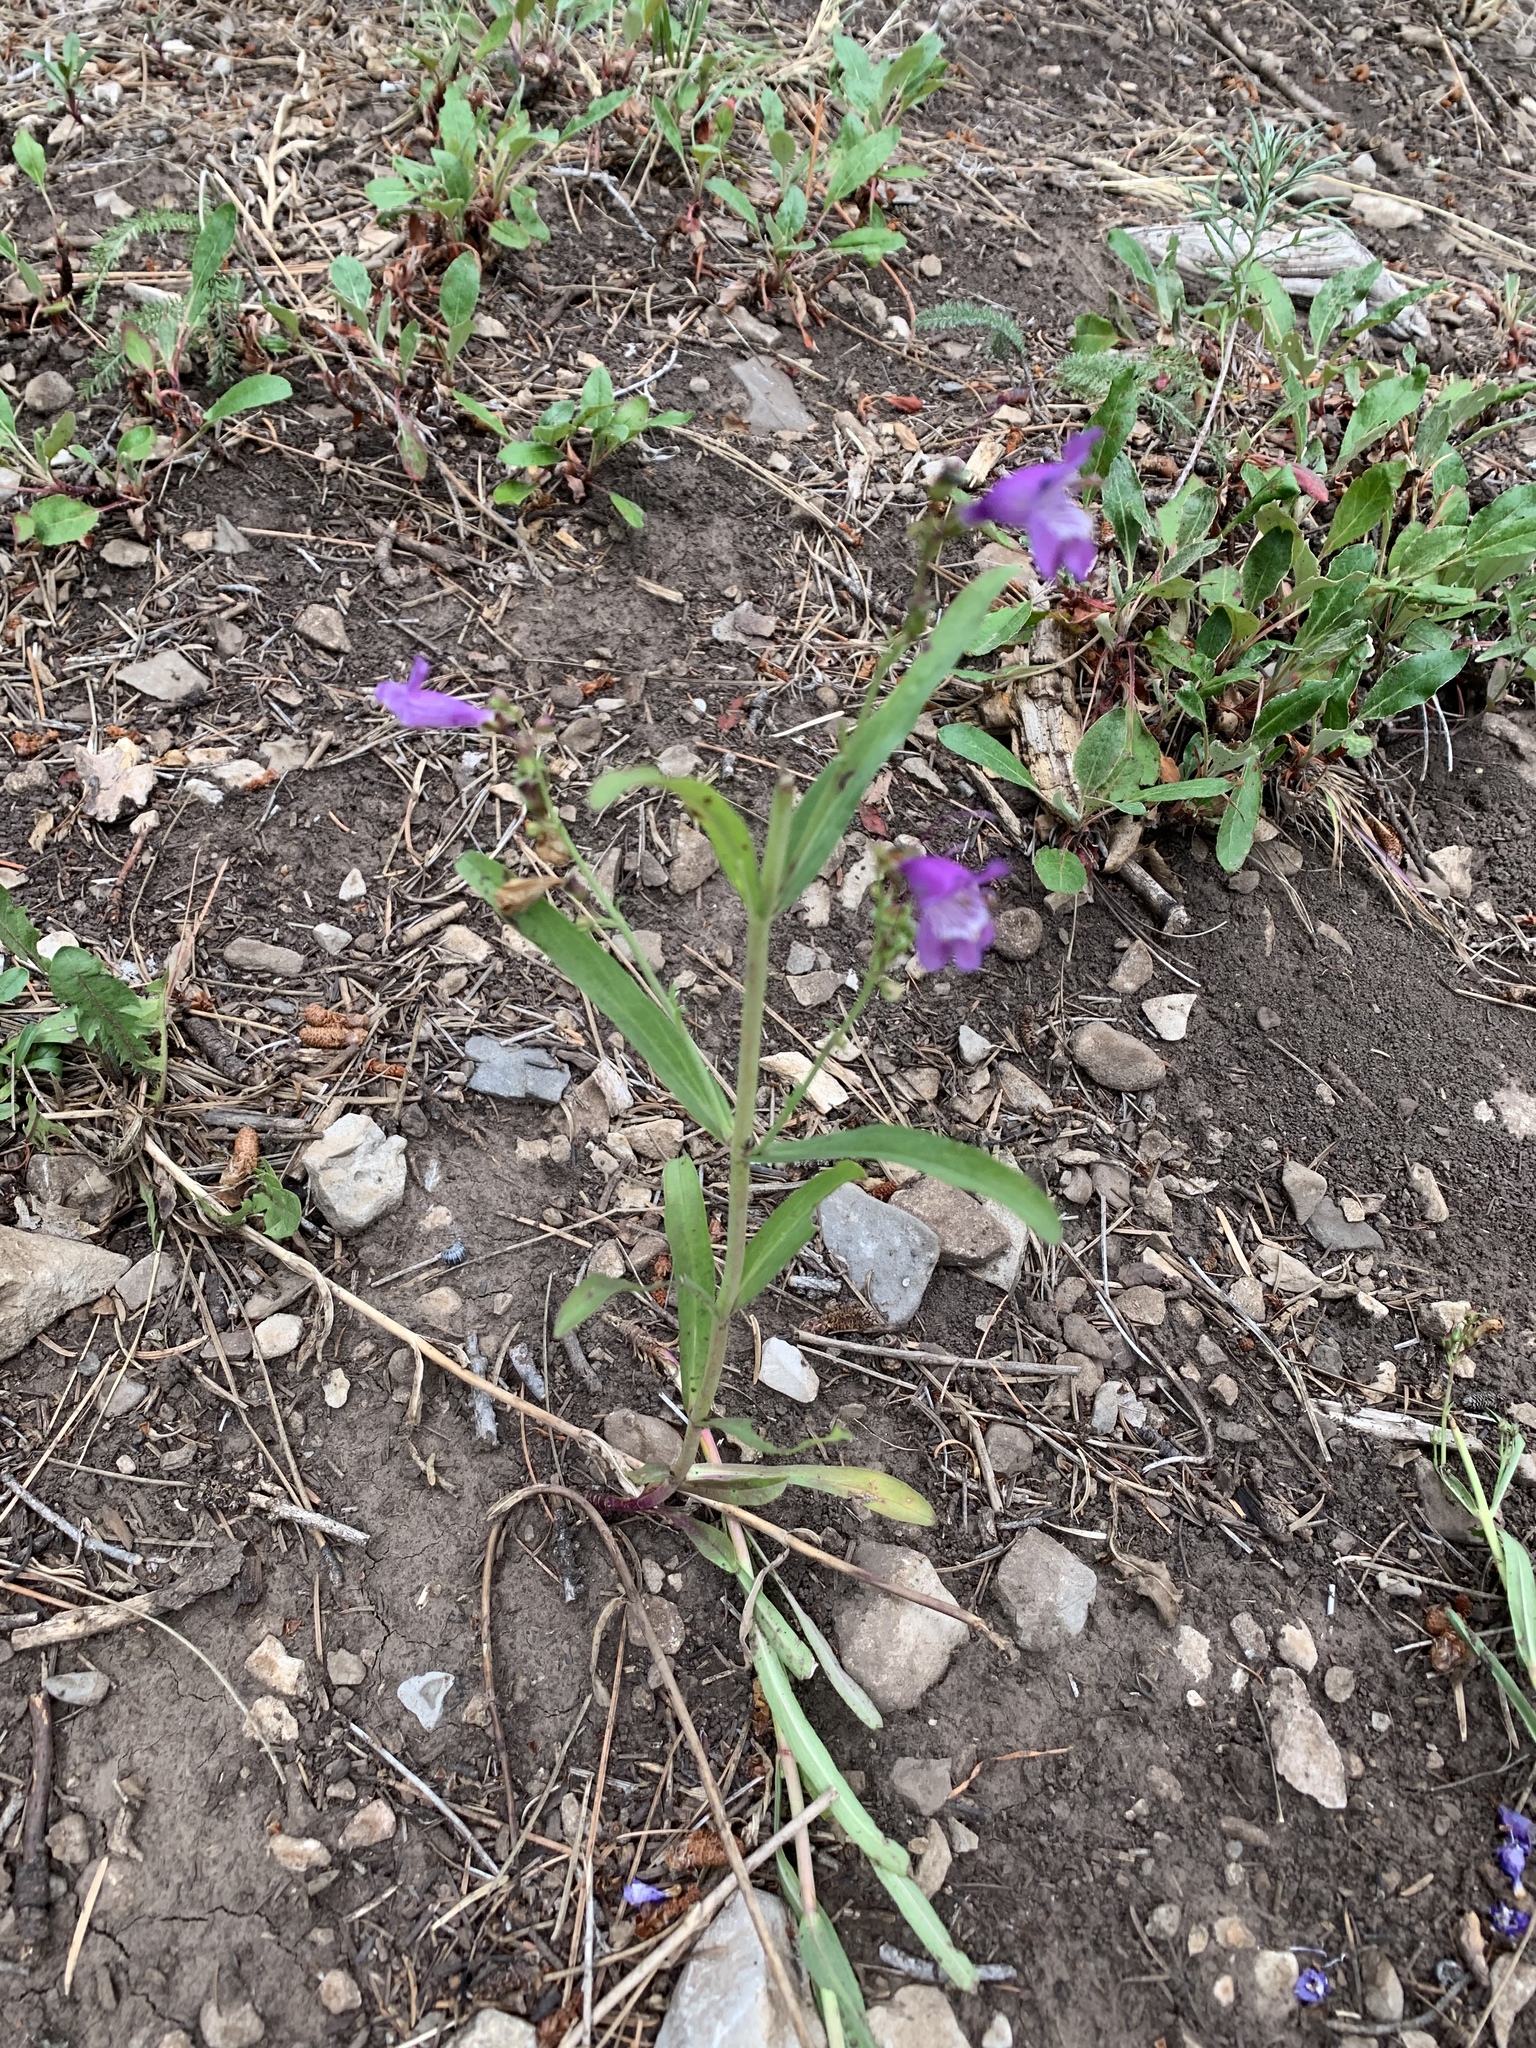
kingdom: Plantae
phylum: Tracheophyta
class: Magnoliopsida
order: Lamiales
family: Plantaginaceae
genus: Penstemon
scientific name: Penstemon neomexicanus
